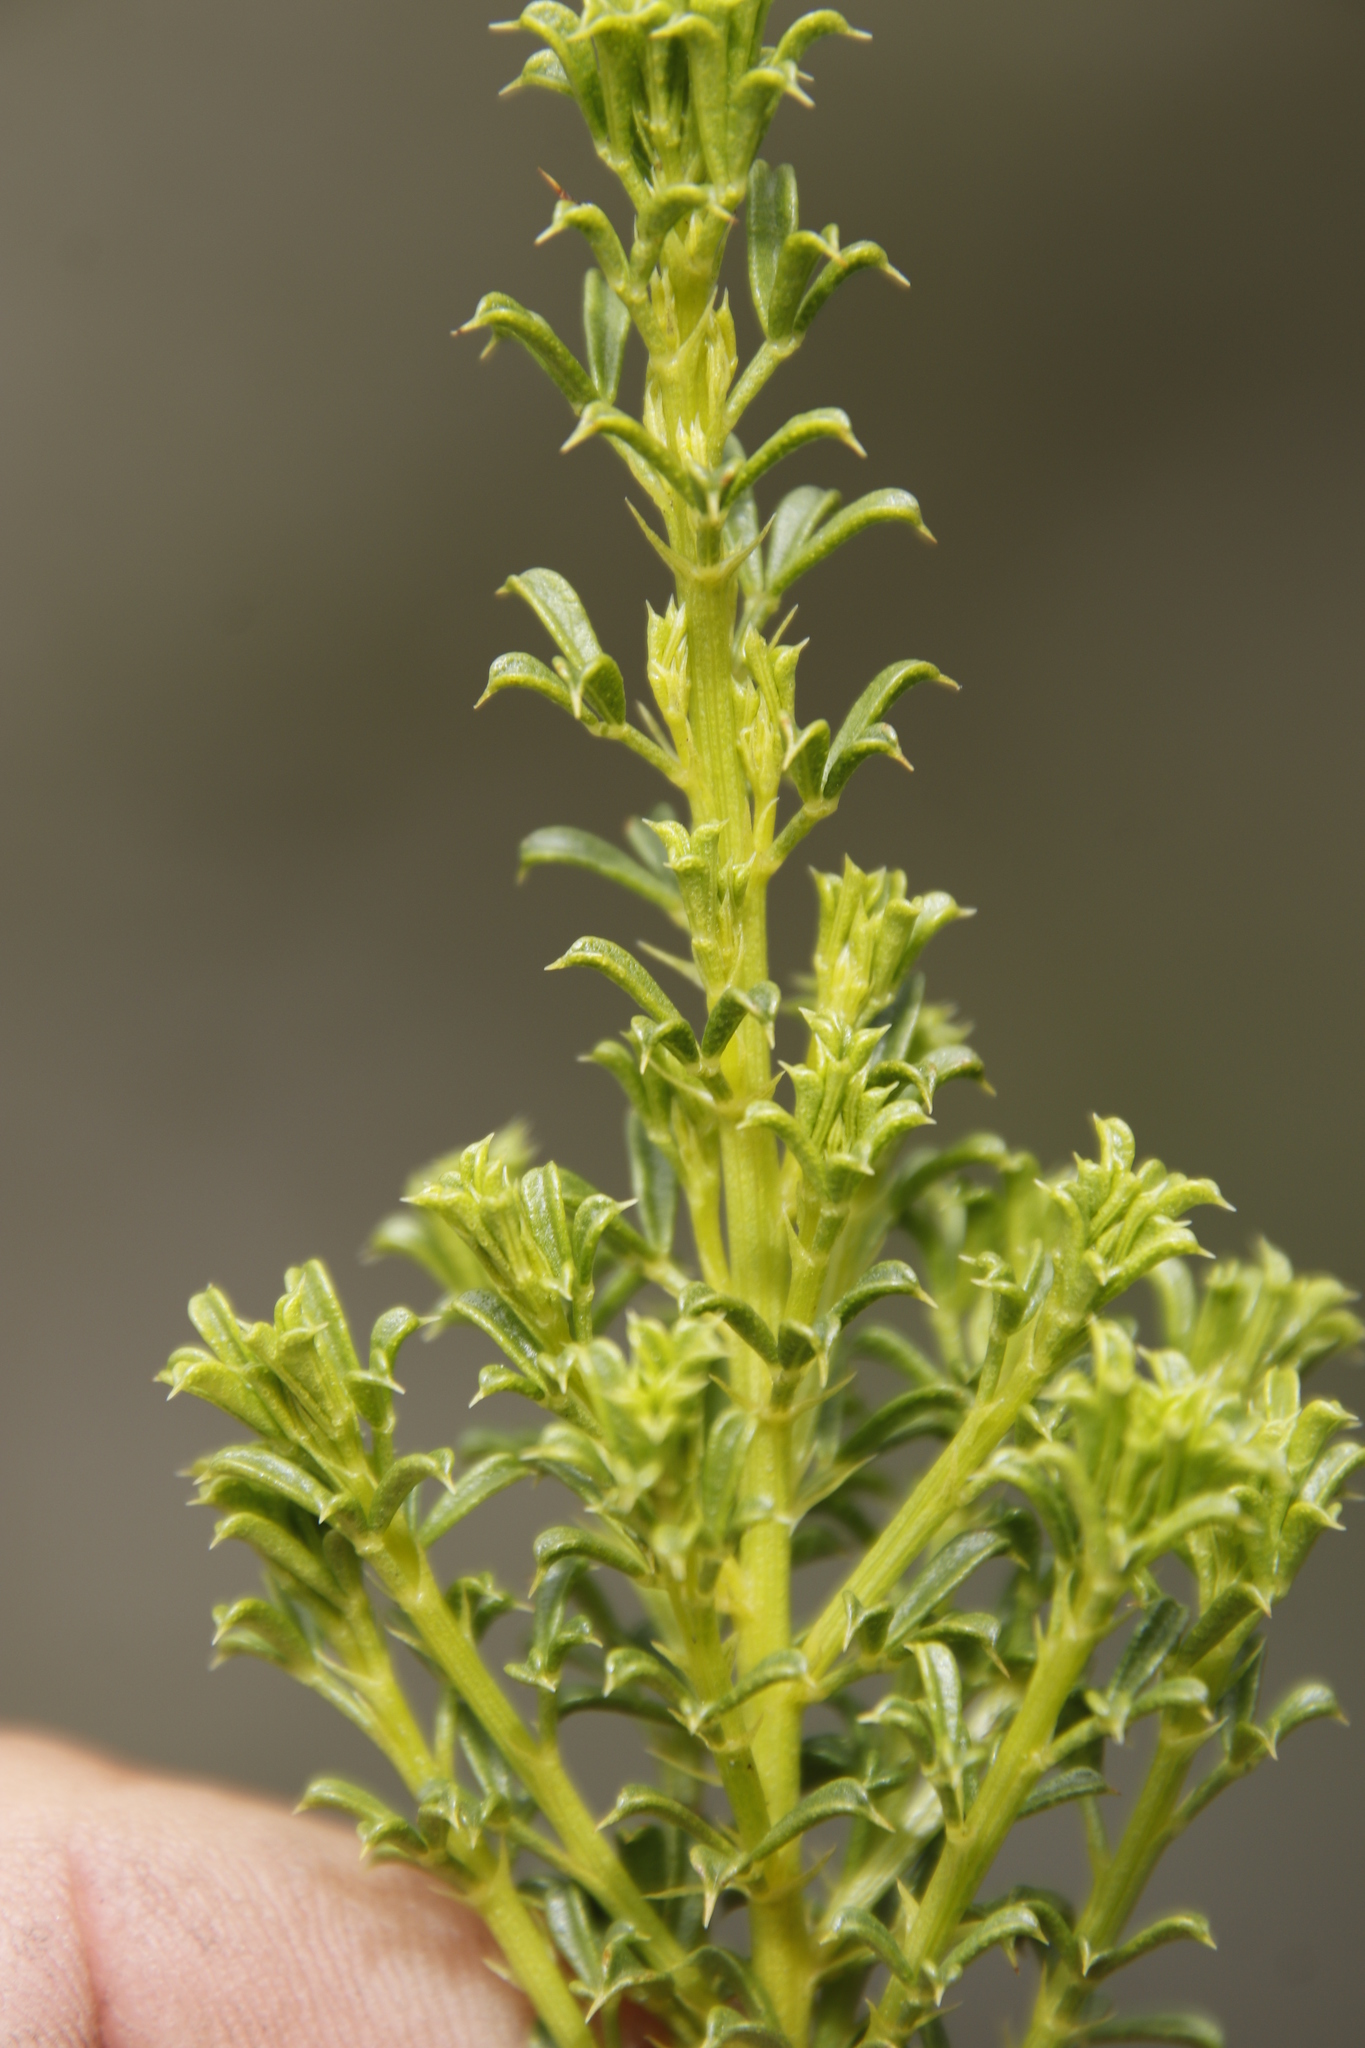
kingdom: Plantae
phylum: Tracheophyta
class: Magnoliopsida
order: Fabales
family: Fabaceae
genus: Psoralea
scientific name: Psoralea aculeata
